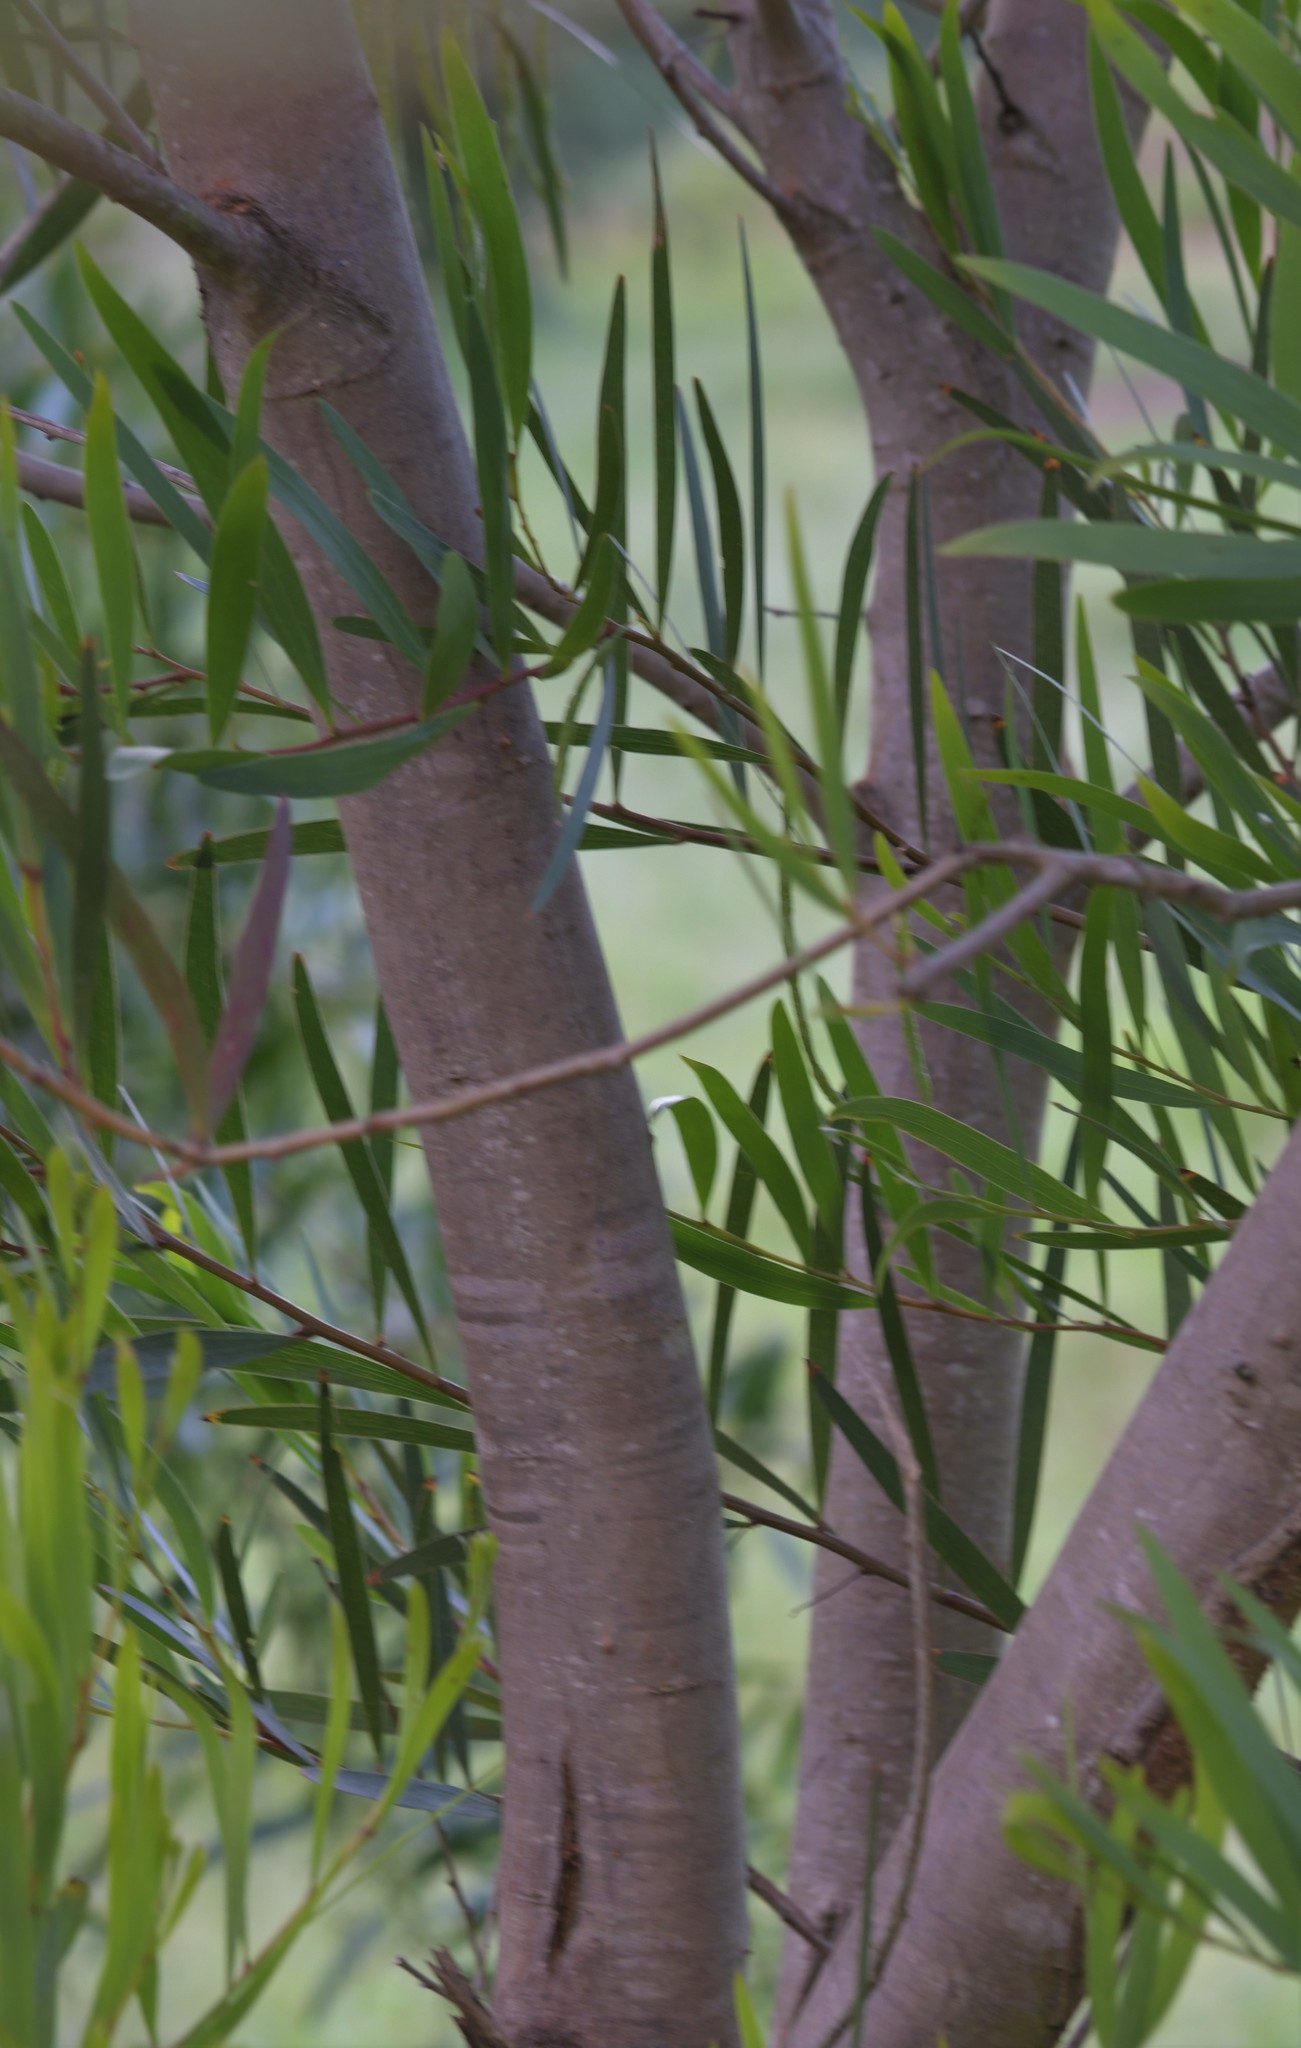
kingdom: Plantae
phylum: Tracheophyta
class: Magnoliopsida
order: Fabales
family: Fabaceae
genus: Acacia
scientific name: Acacia longifolia
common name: Sydney golden wattle
